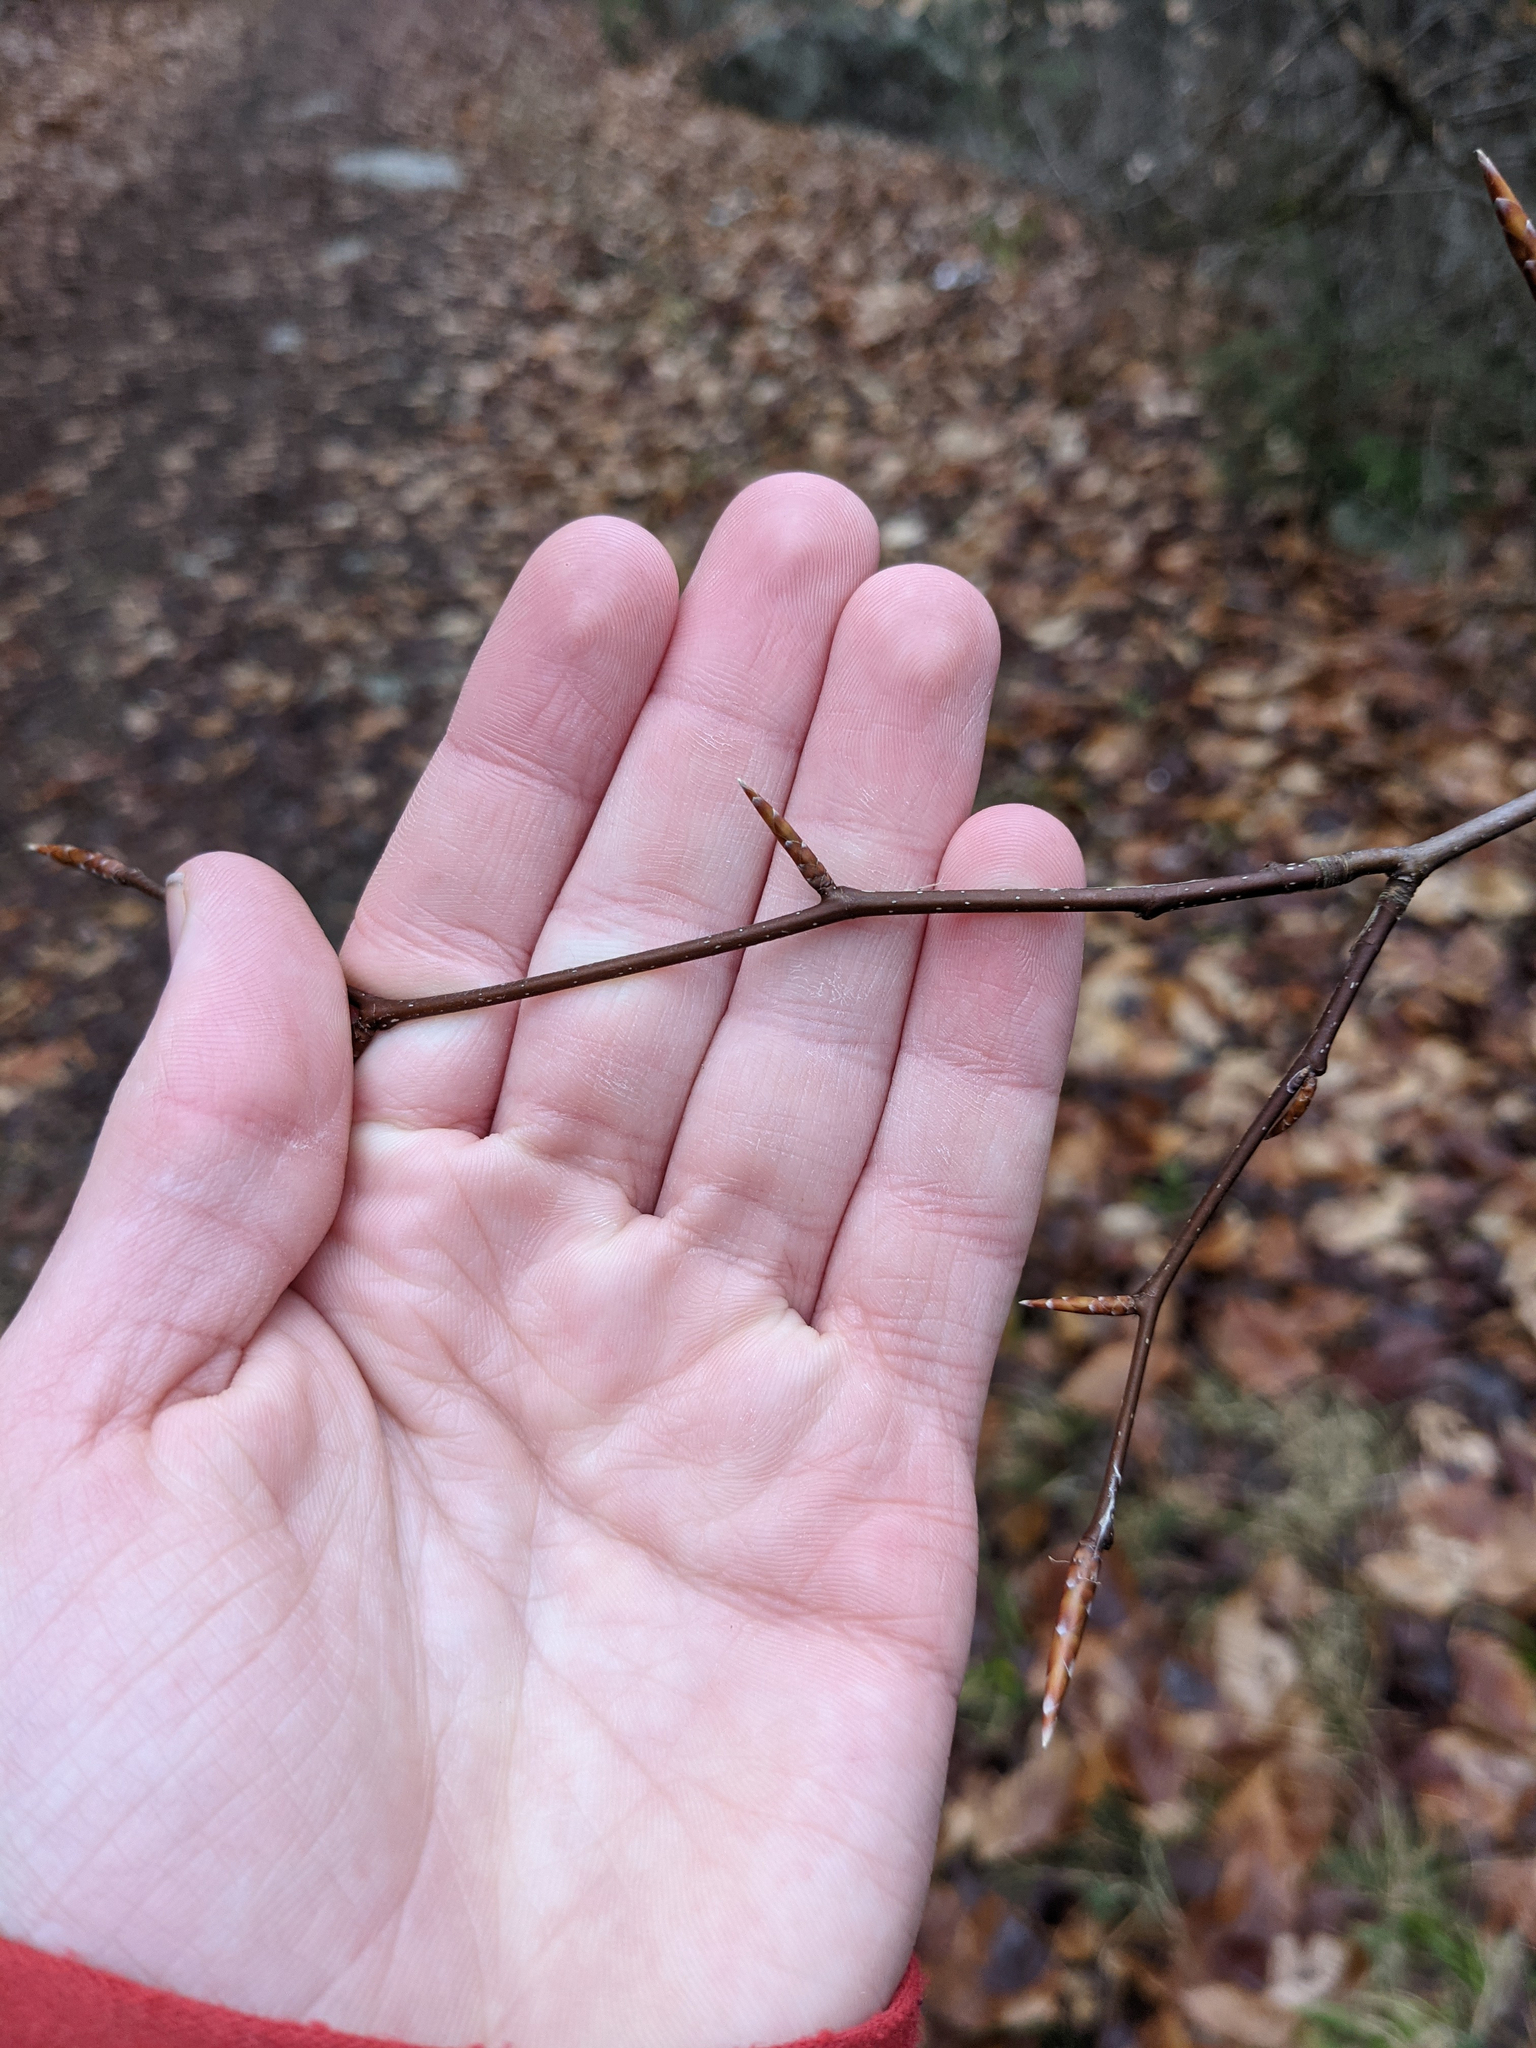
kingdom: Plantae
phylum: Tracheophyta
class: Magnoliopsida
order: Fagales
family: Fagaceae
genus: Fagus
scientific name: Fagus grandifolia
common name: American beech
